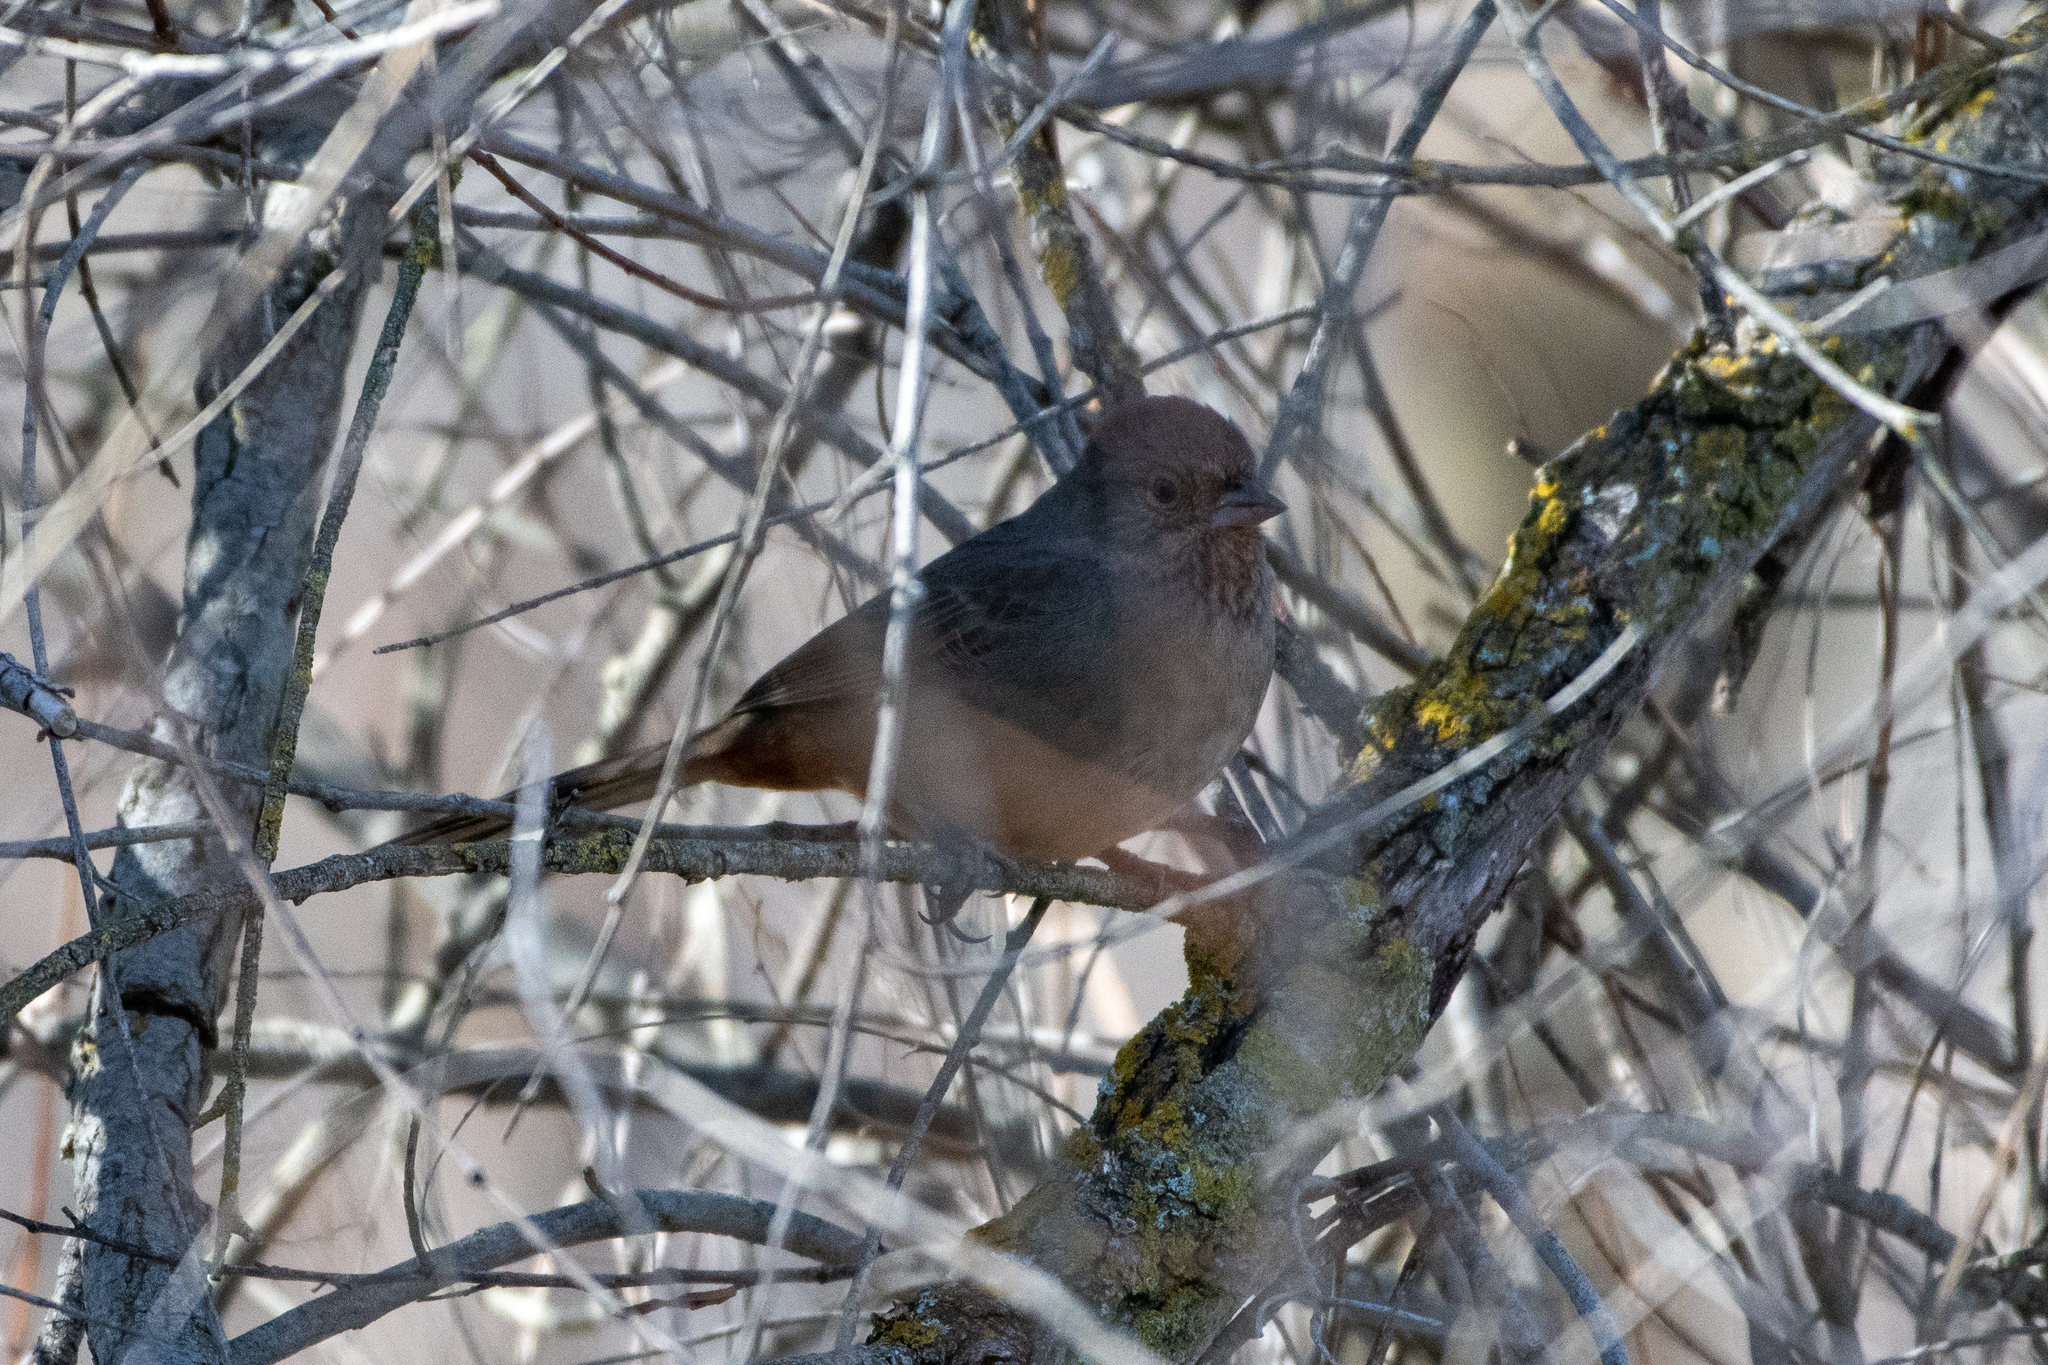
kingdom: Animalia
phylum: Chordata
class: Aves
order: Passeriformes
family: Passerellidae
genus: Melozone
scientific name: Melozone crissalis
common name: California towhee
